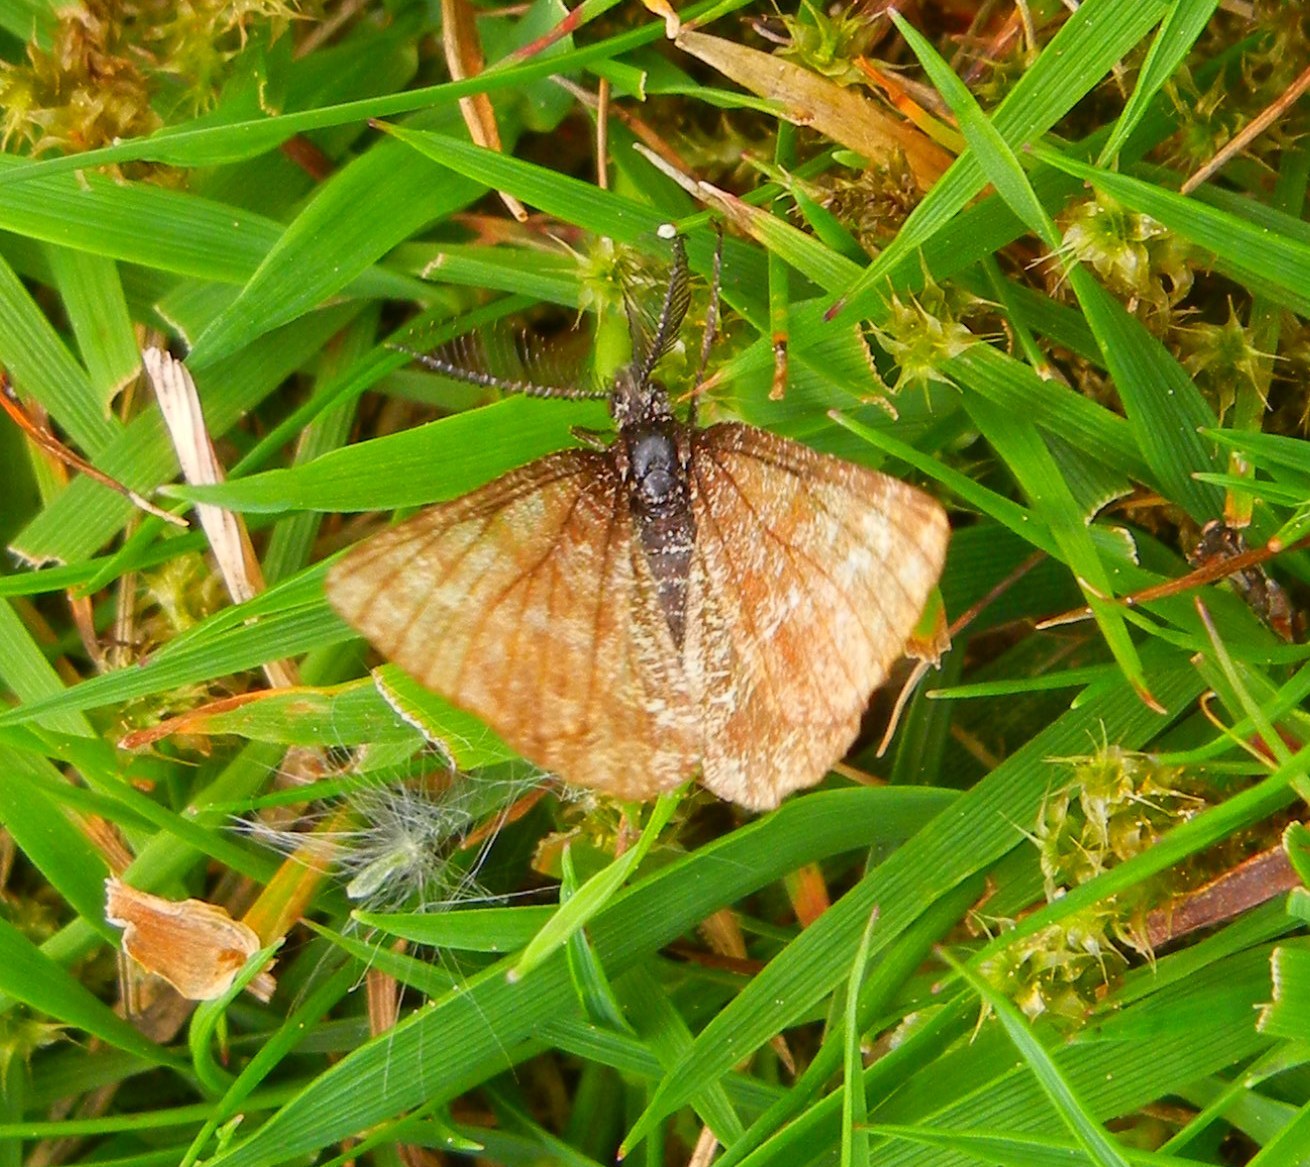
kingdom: Animalia
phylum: Arthropoda
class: Insecta
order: Lepidoptera
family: Geometridae
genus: Ematurga
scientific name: Ematurga atomaria
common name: Common heath
